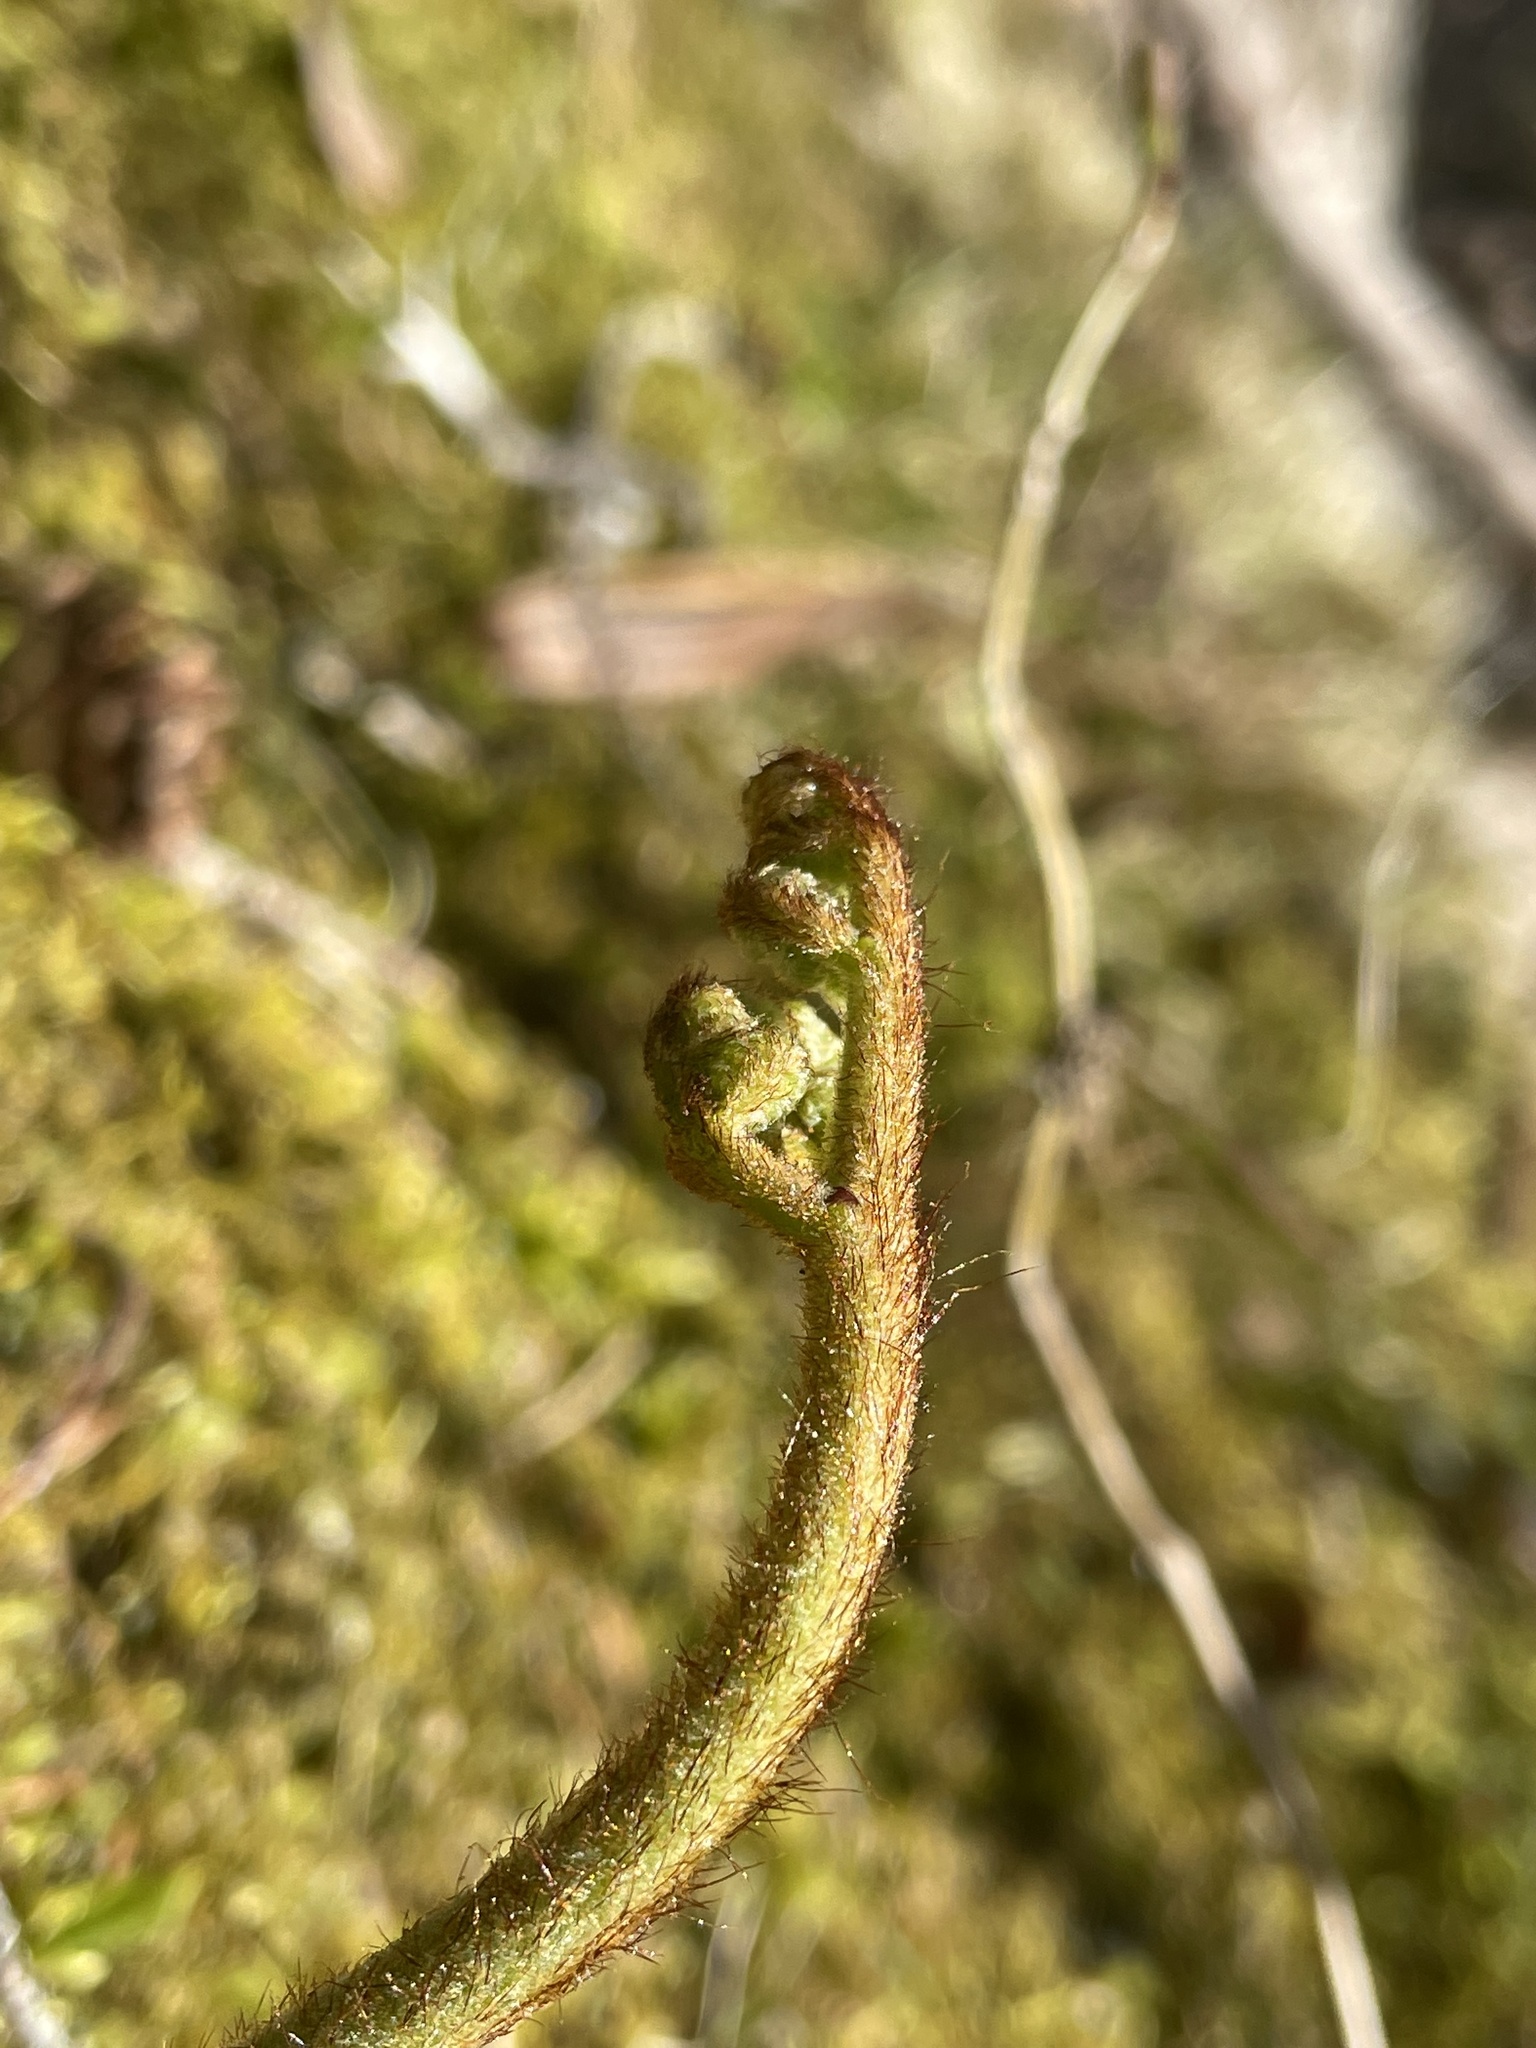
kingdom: Plantae
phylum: Tracheophyta
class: Polypodiopsida
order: Polypodiales
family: Dennstaedtiaceae
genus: Pteridium
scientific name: Pteridium aquilinum
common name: Bracken
